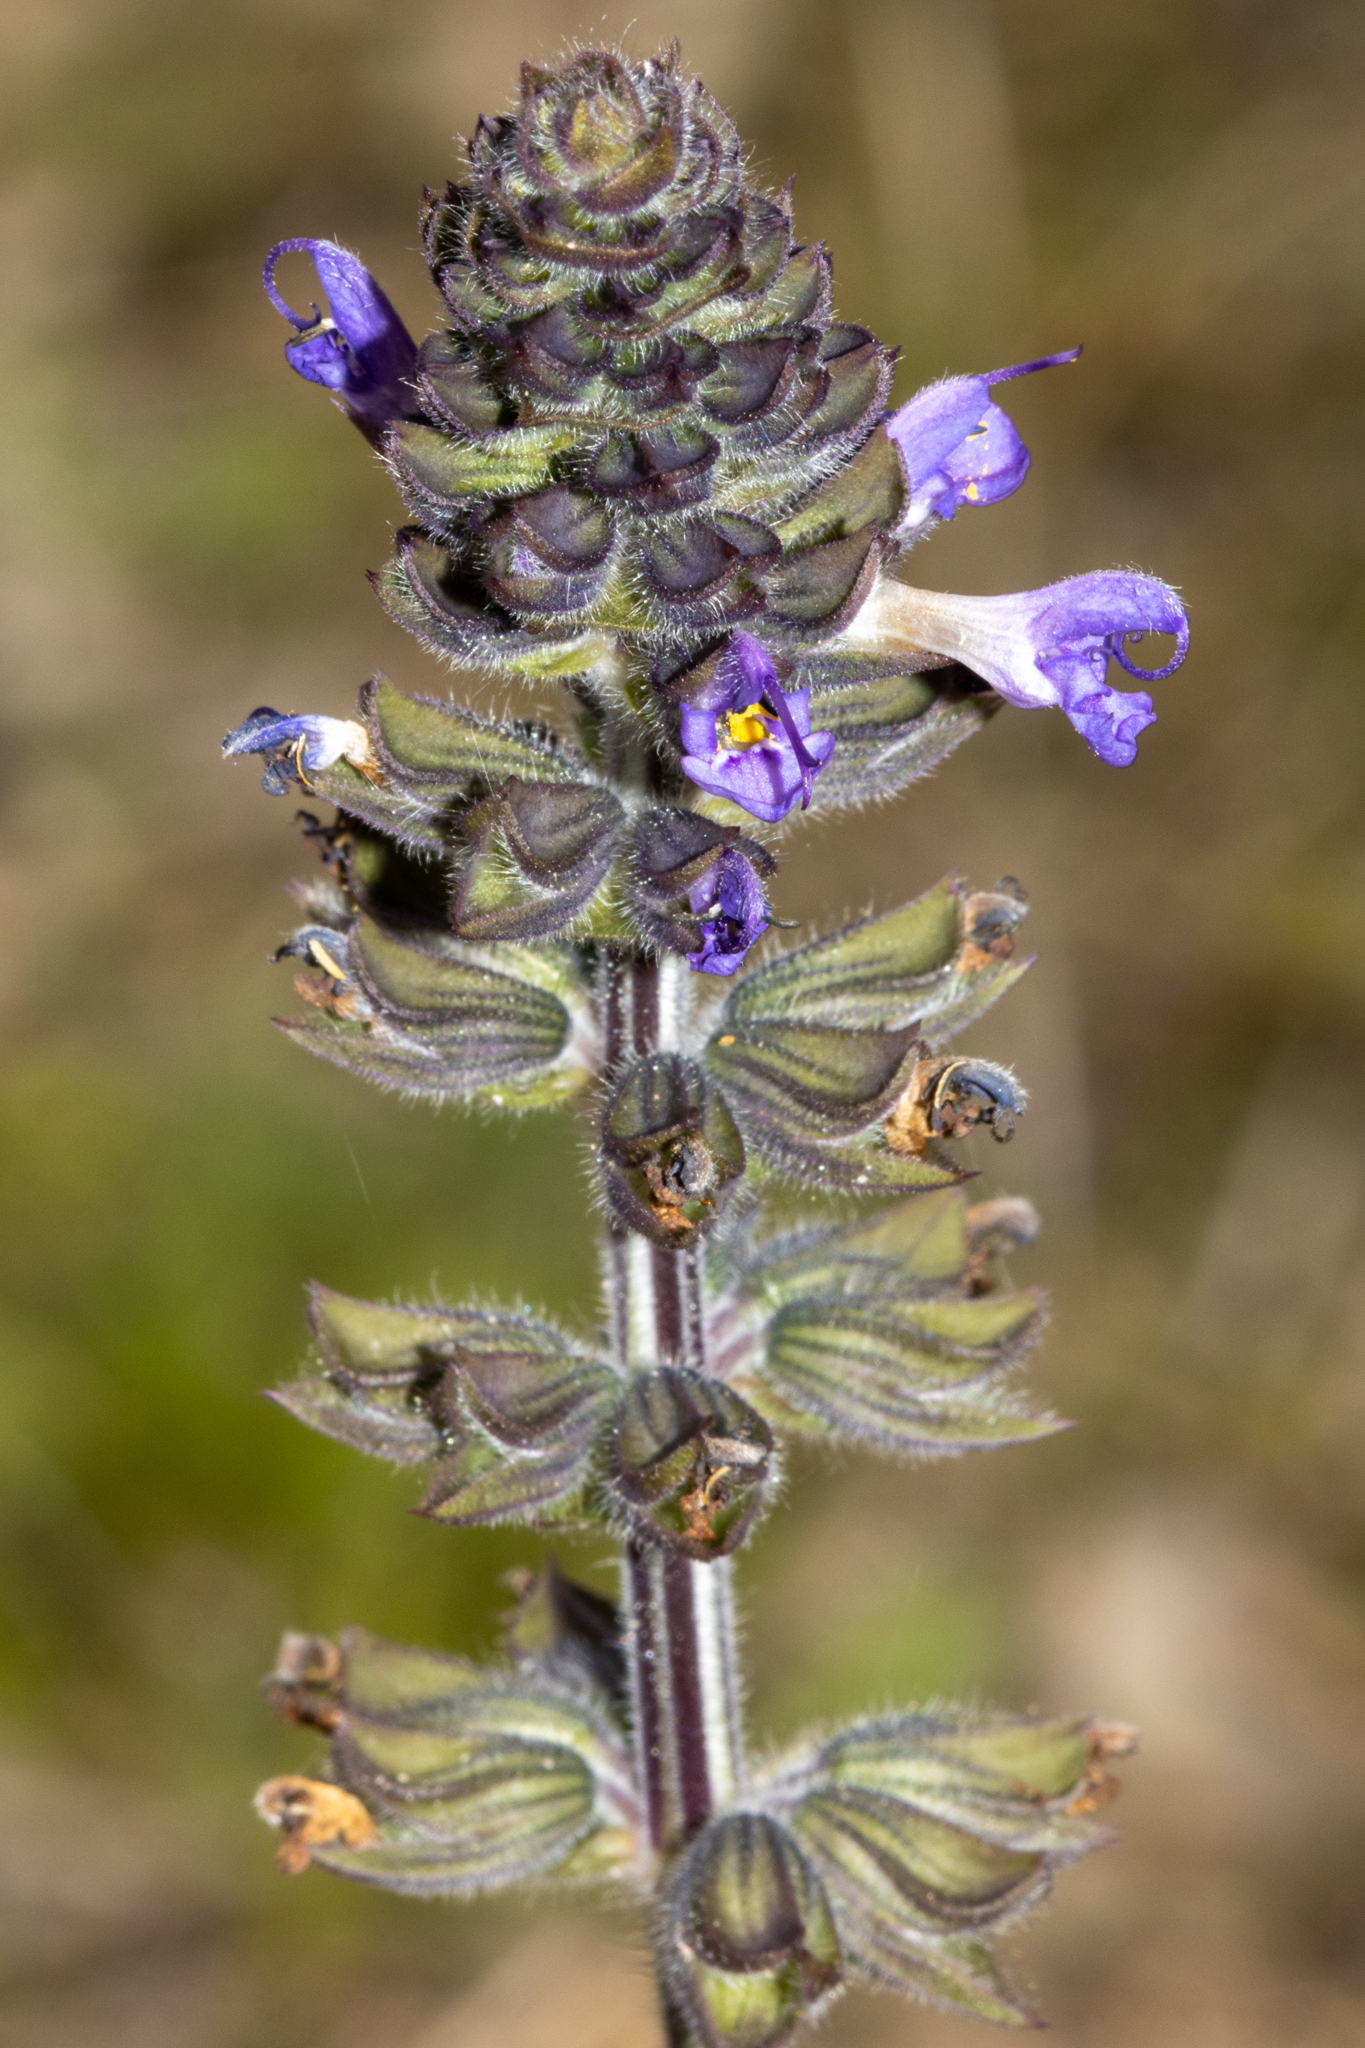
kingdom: Plantae
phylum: Tracheophyta
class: Magnoliopsida
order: Lamiales
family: Lamiaceae
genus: Salvia
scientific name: Salvia verbenaca
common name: Wild clary
